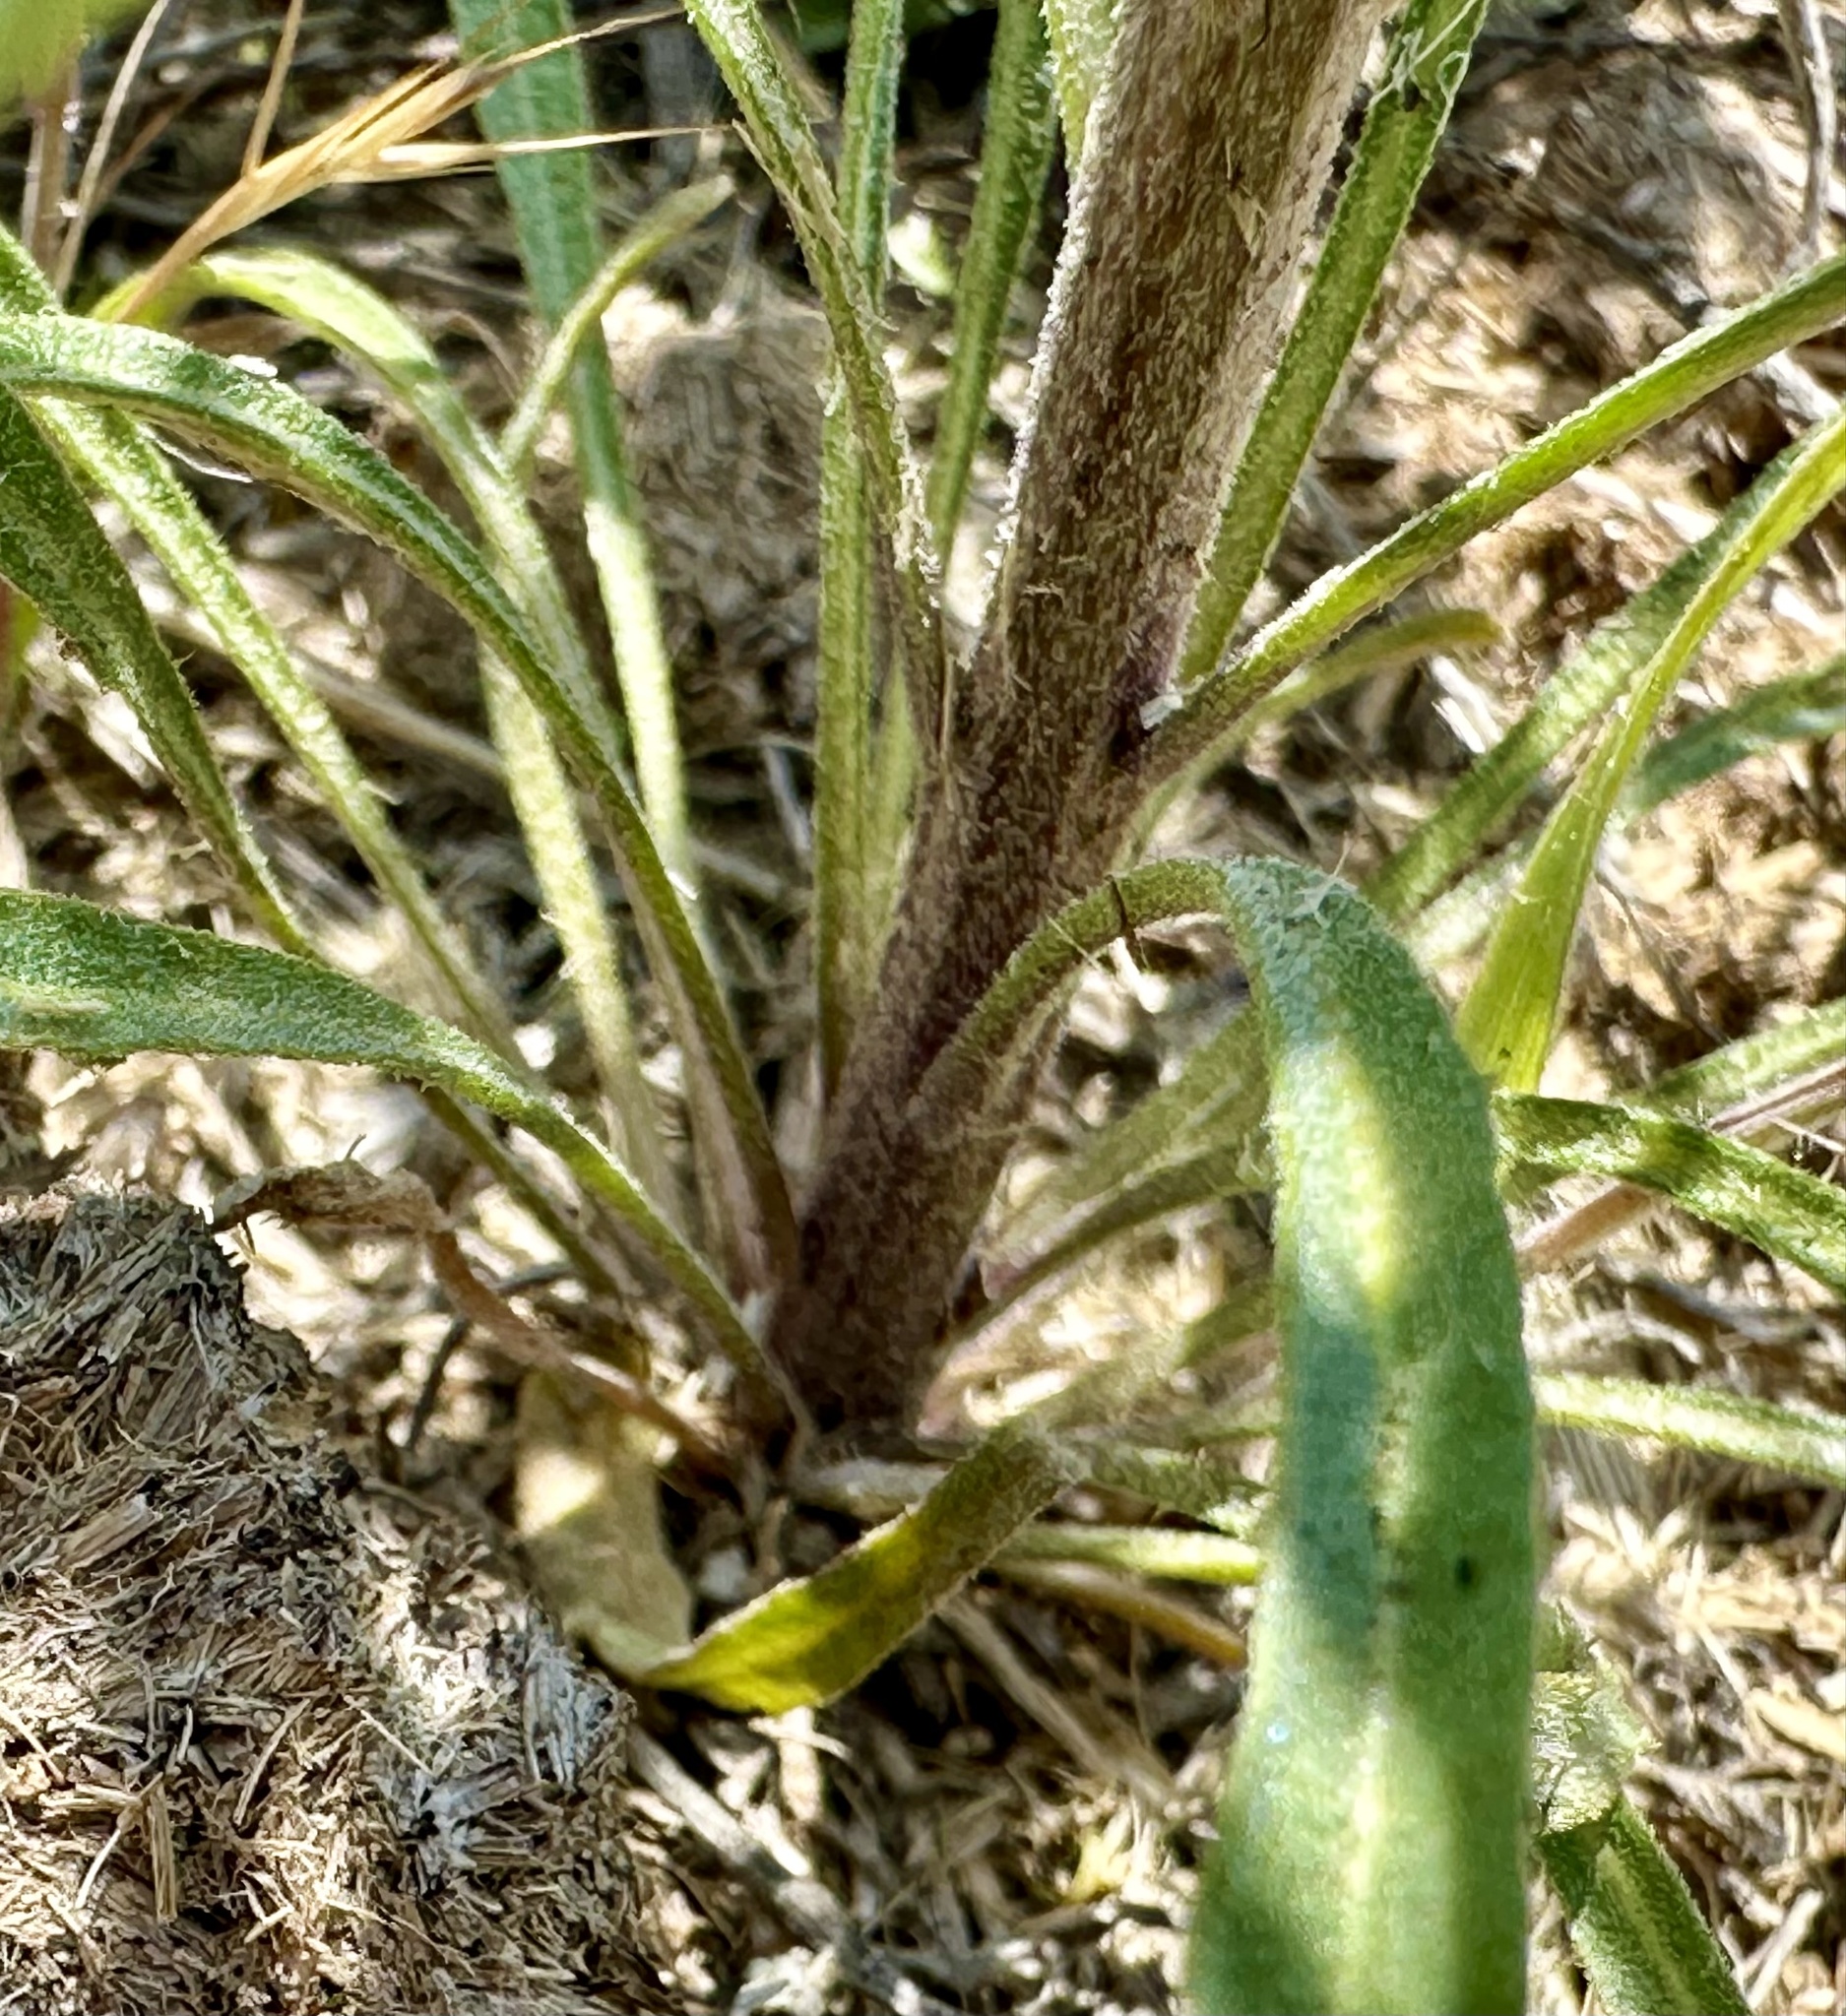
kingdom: Plantae
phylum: Tracheophyta
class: Magnoliopsida
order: Brassicales
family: Brassicaceae
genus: Erysimum
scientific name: Erysimum capitatum
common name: Western wallflower
